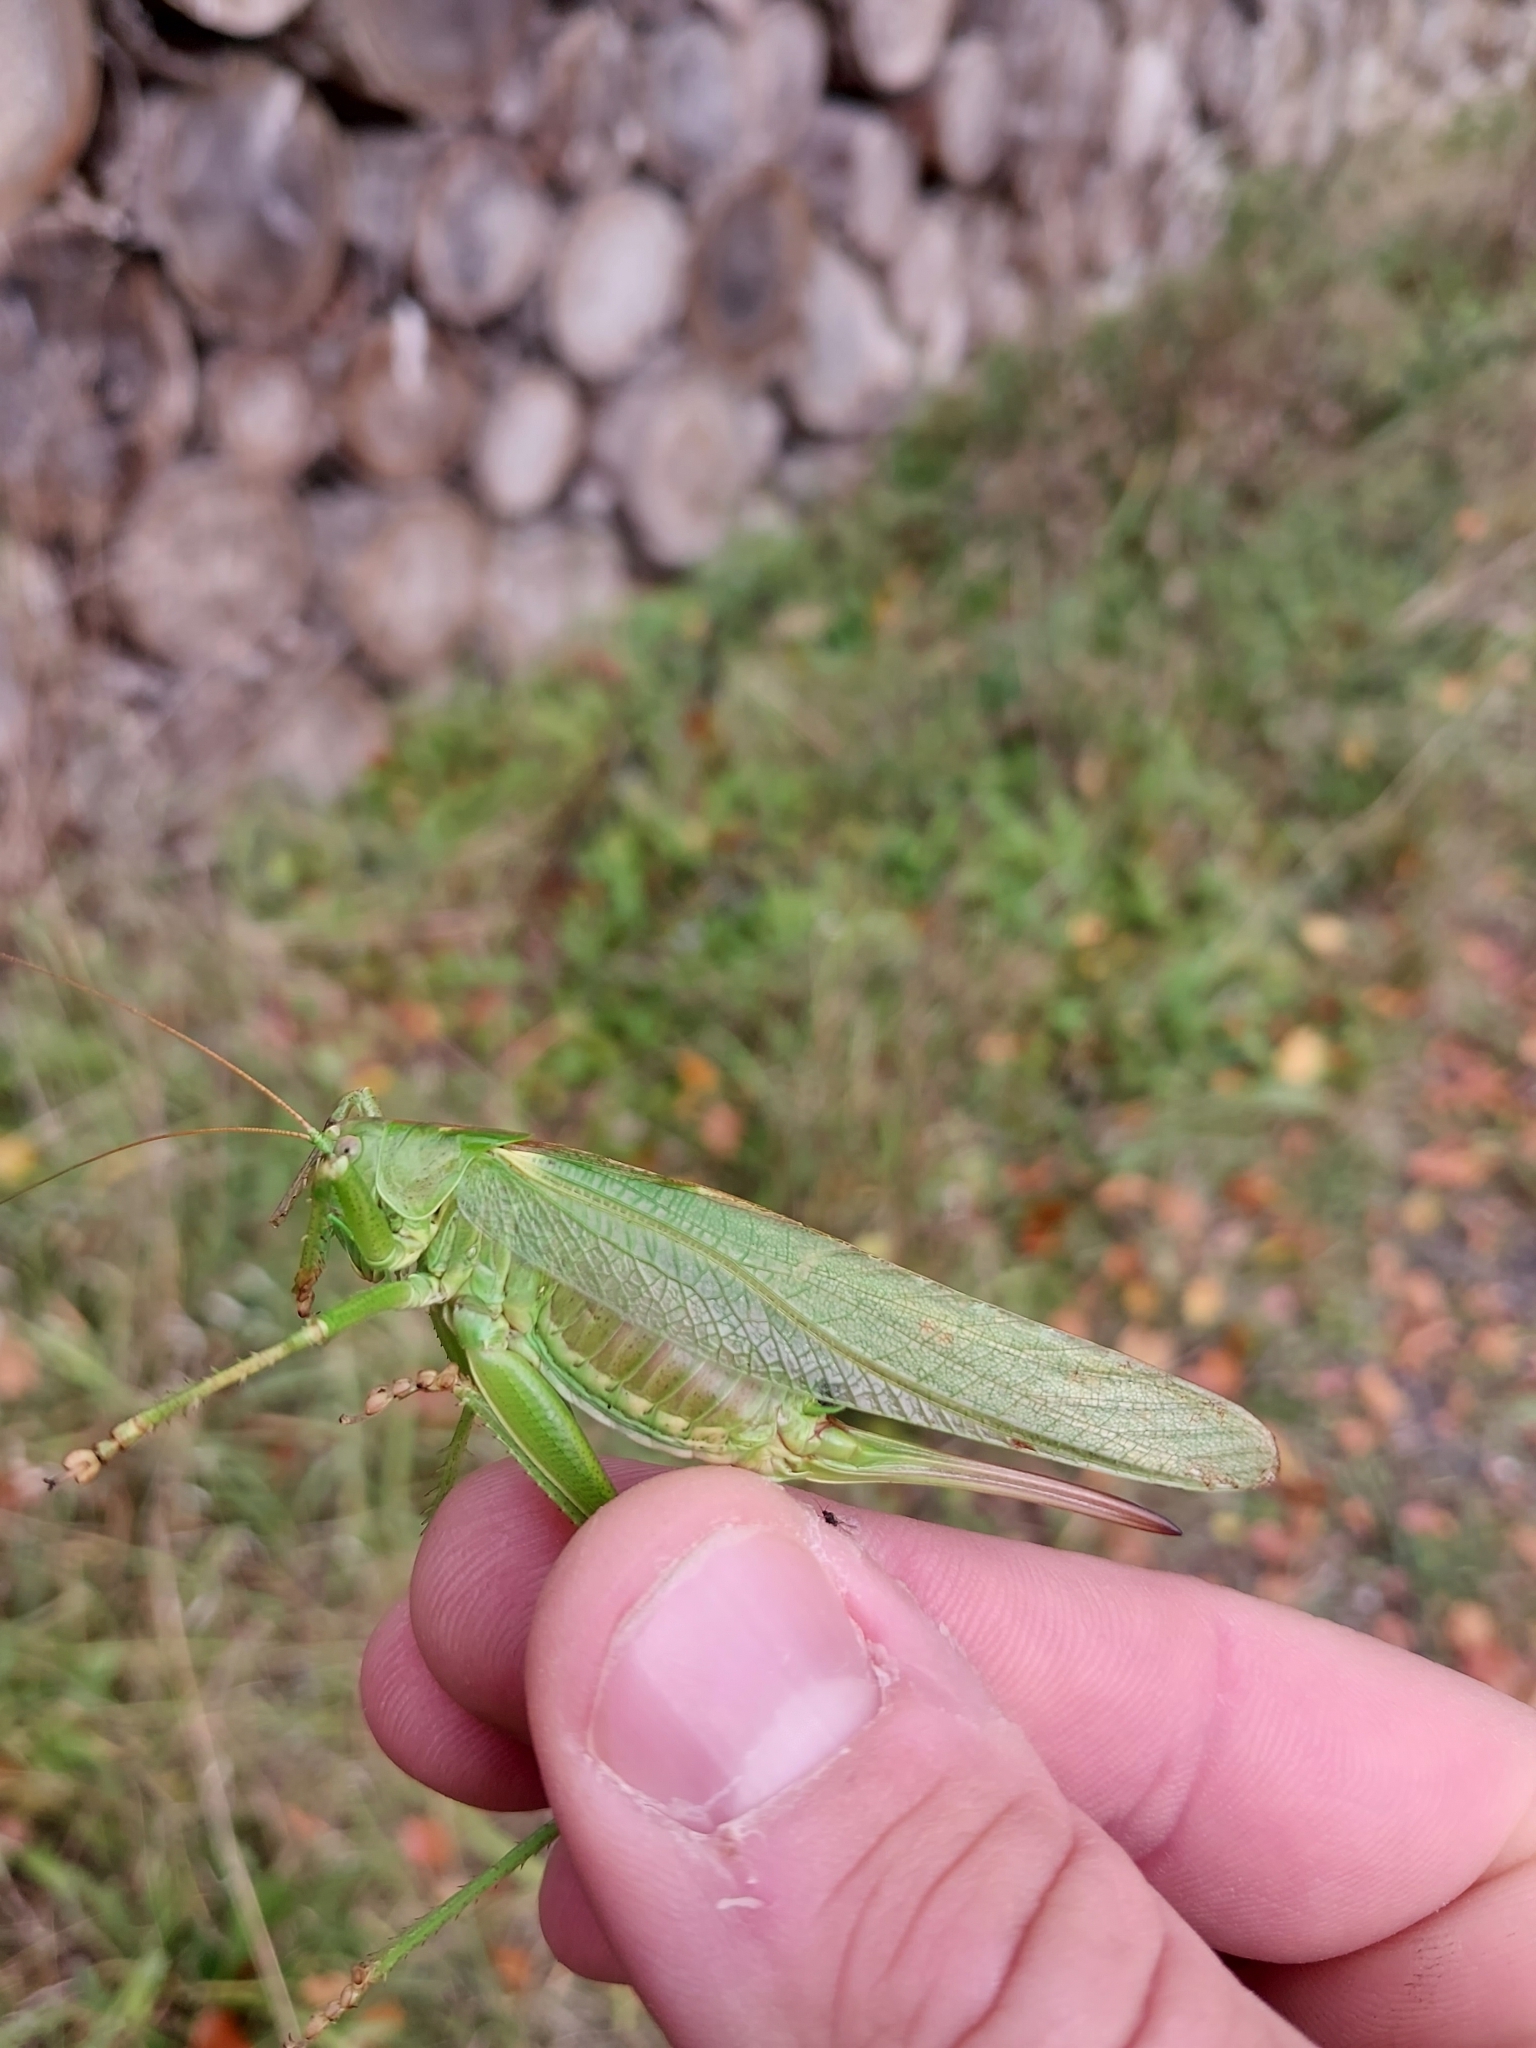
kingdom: Animalia
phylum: Arthropoda
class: Insecta
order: Orthoptera
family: Tettigoniidae
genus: Tettigonia
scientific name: Tettigonia viridissima
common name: Great green bush-cricket
